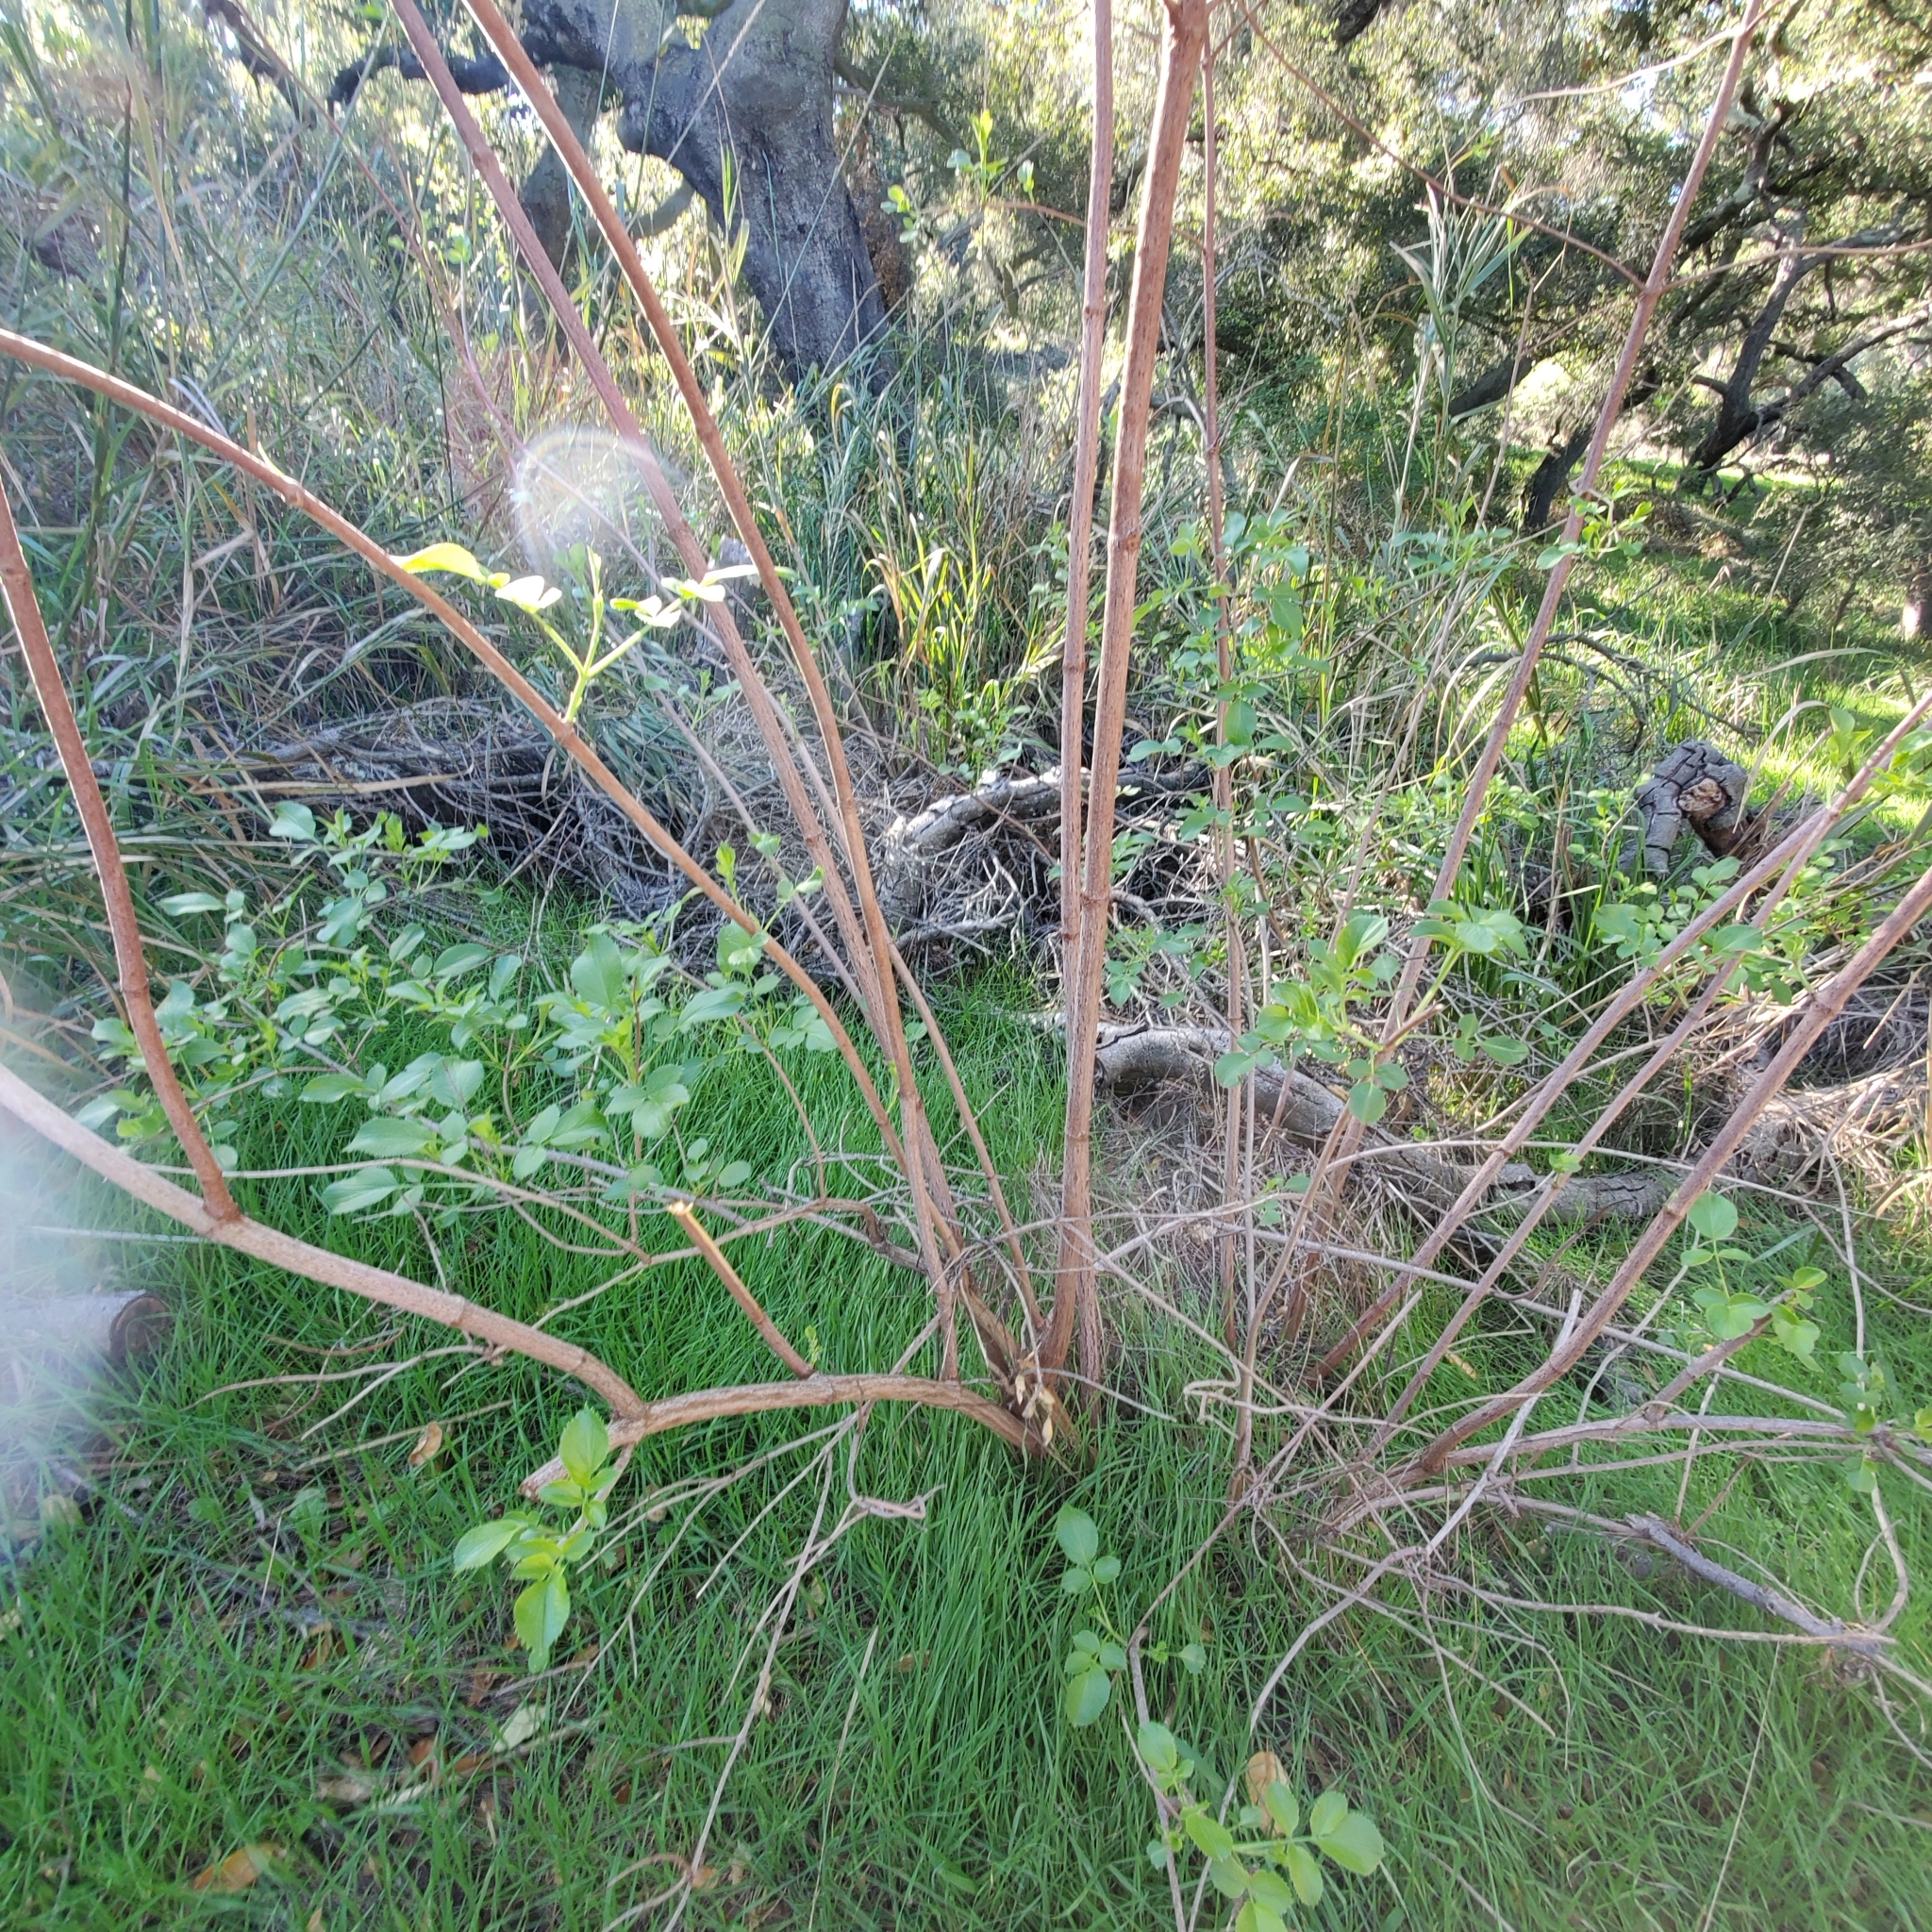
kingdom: Plantae
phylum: Tracheophyta
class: Magnoliopsida
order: Dipsacales
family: Viburnaceae
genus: Sambucus
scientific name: Sambucus cerulea
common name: Blue elder
